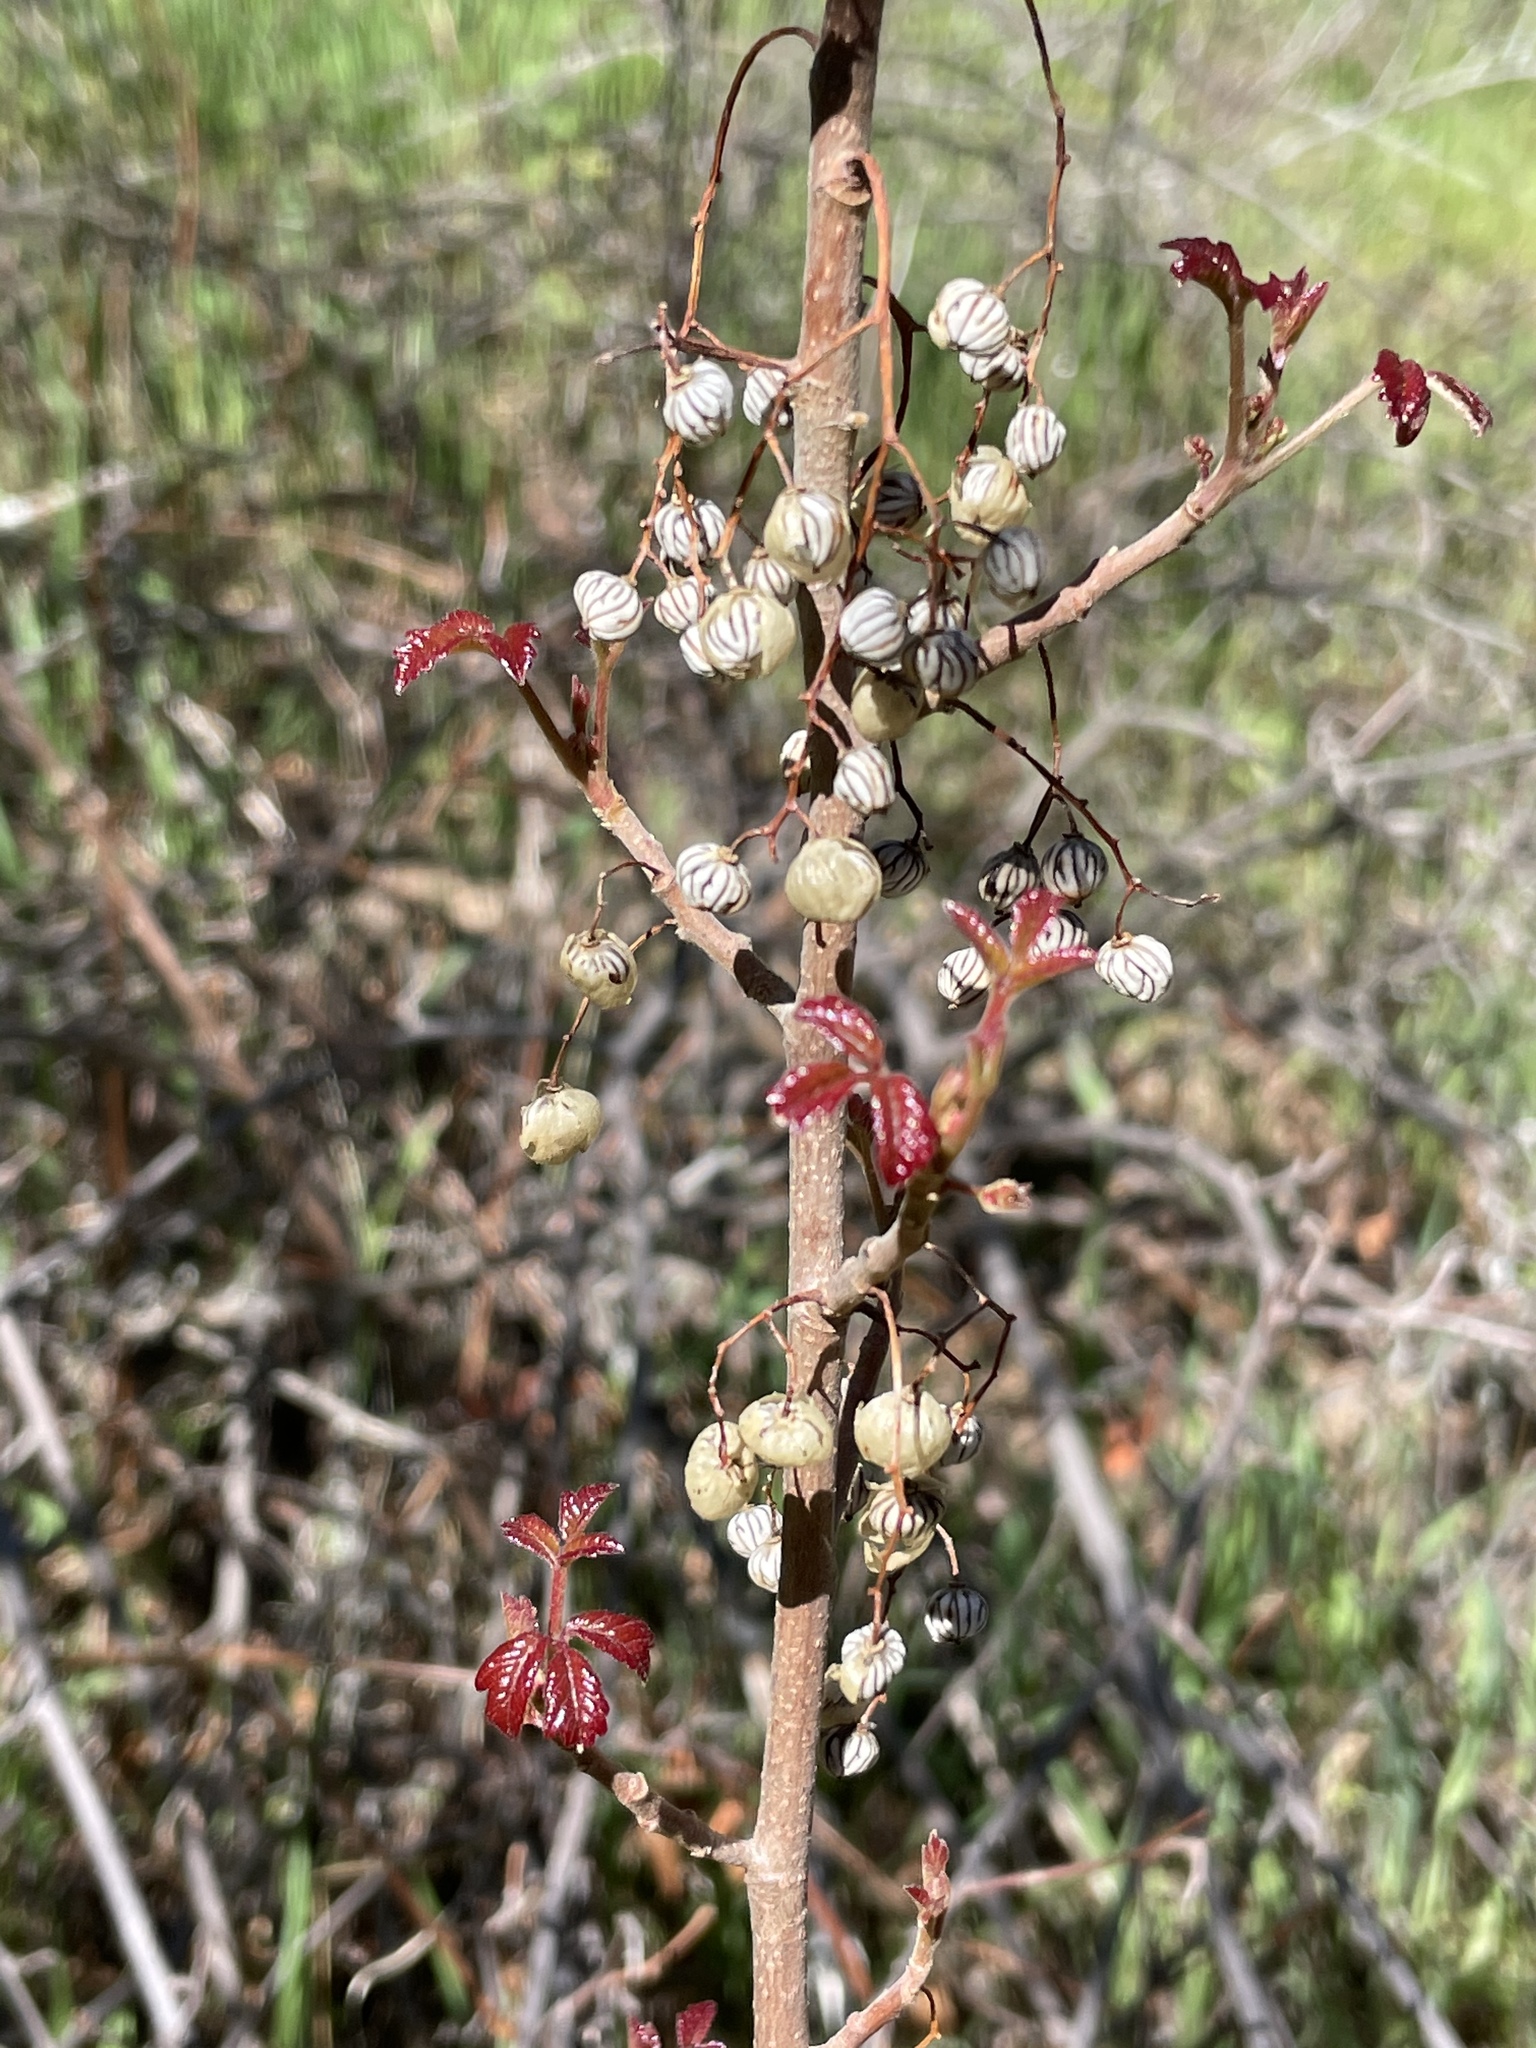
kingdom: Plantae
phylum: Tracheophyta
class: Magnoliopsida
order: Sapindales
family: Anacardiaceae
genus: Toxicodendron
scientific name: Toxicodendron diversilobum
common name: Pacific poison-oak
